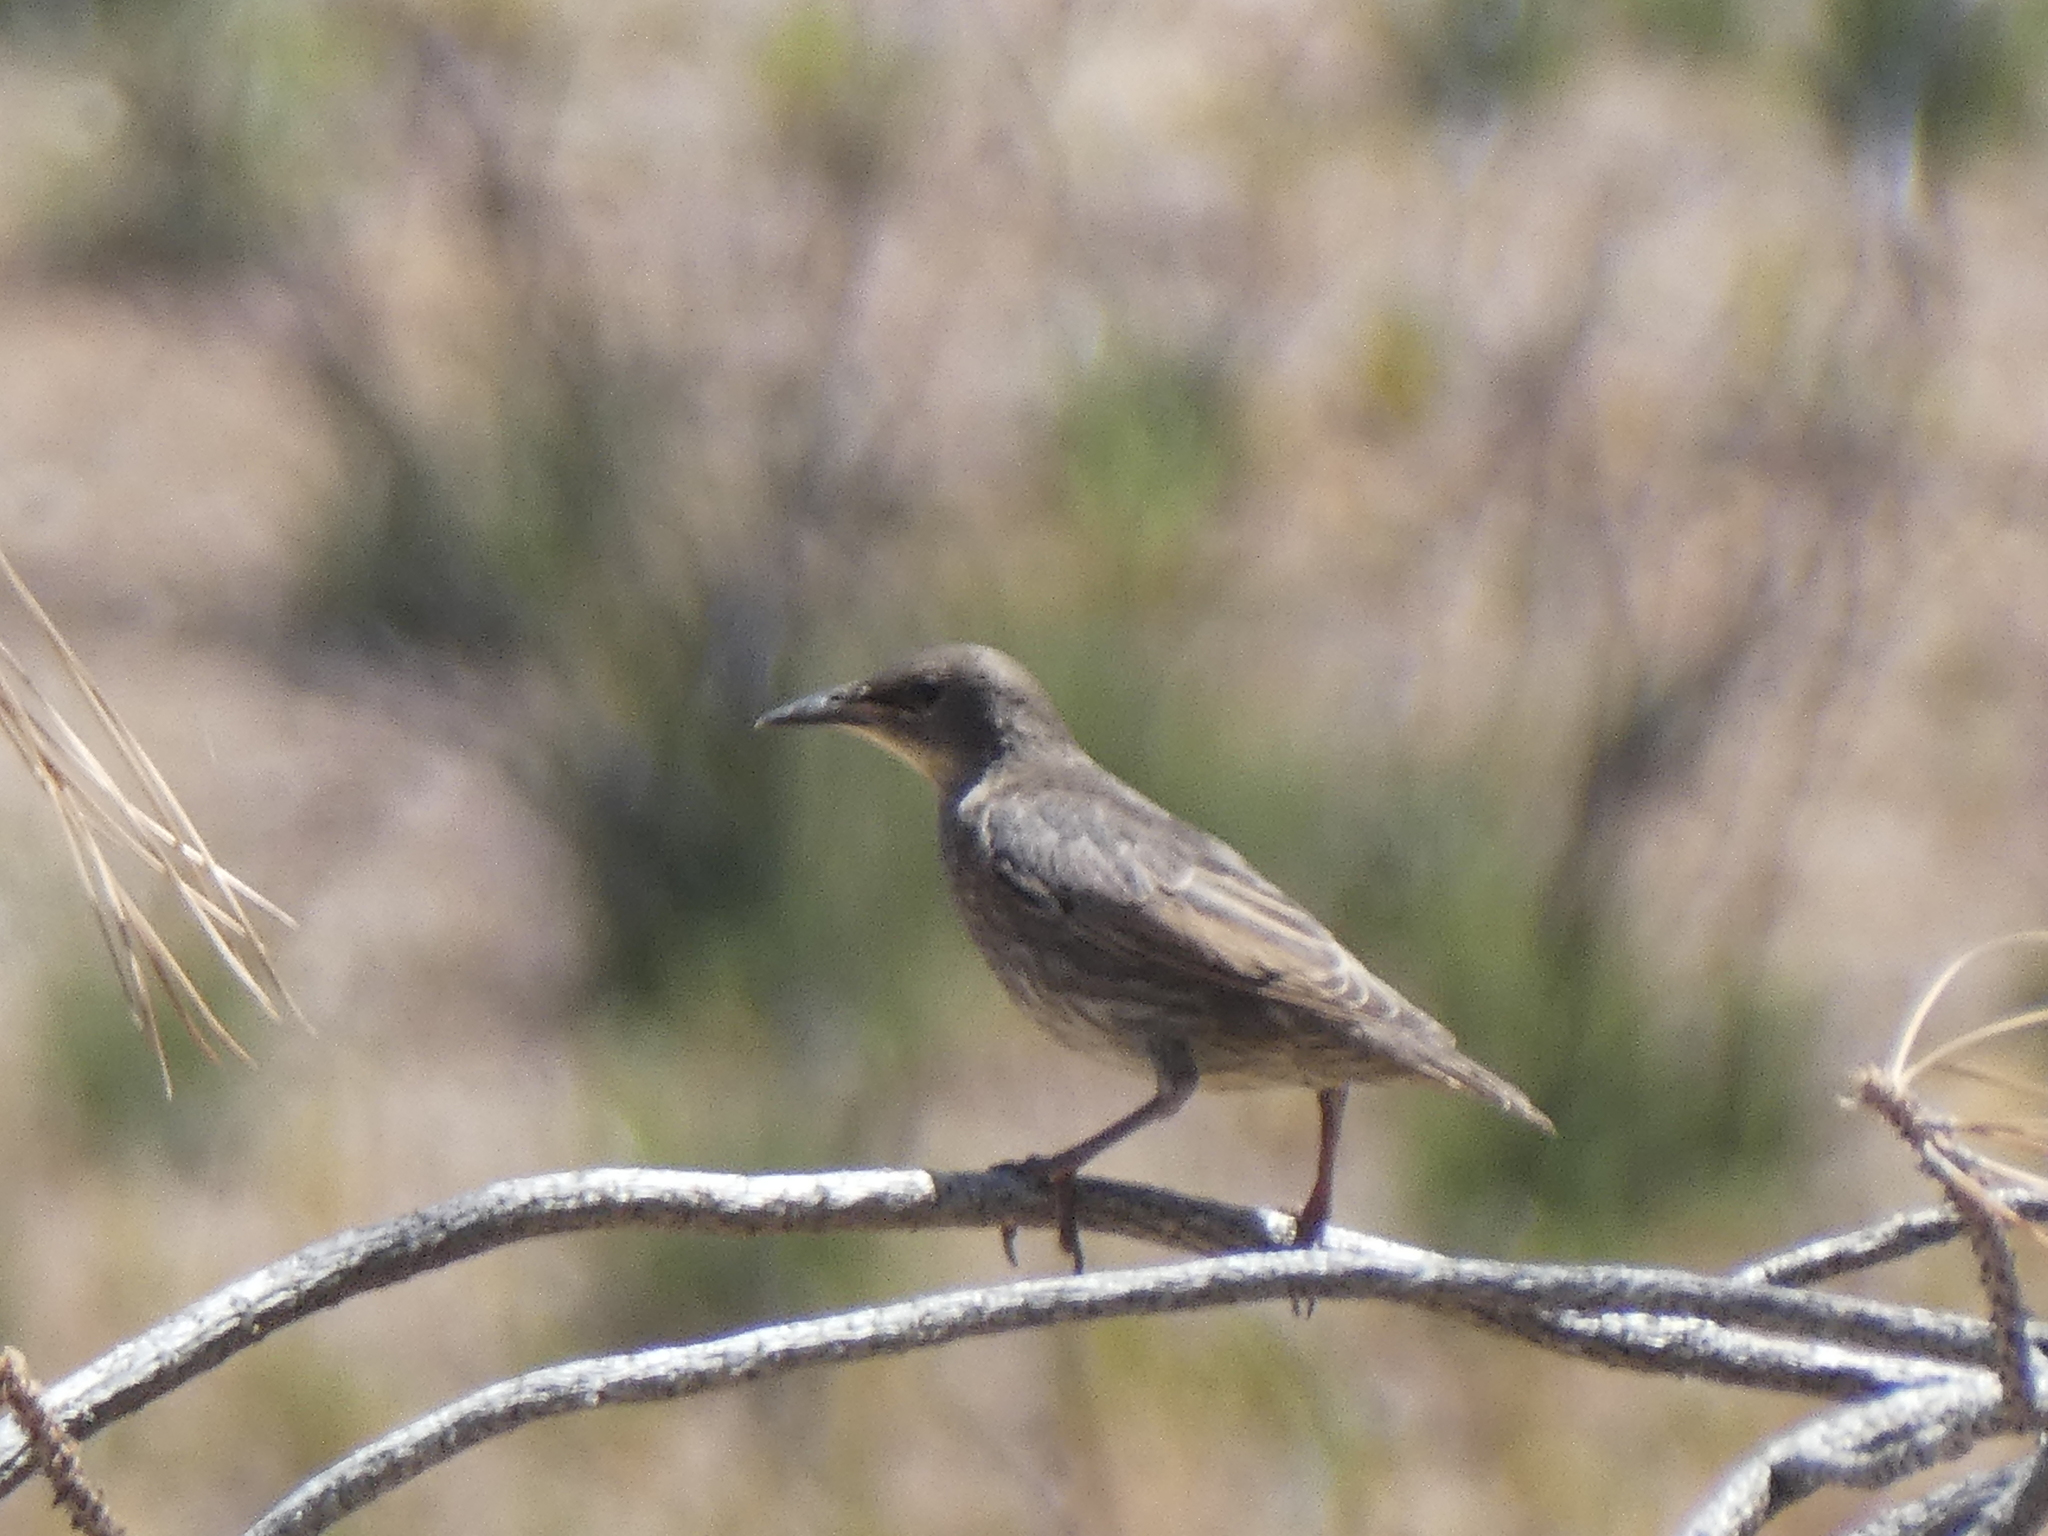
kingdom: Animalia
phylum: Chordata
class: Aves
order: Passeriformes
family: Sturnidae
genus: Sturnus
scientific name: Sturnus vulgaris
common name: Common starling
